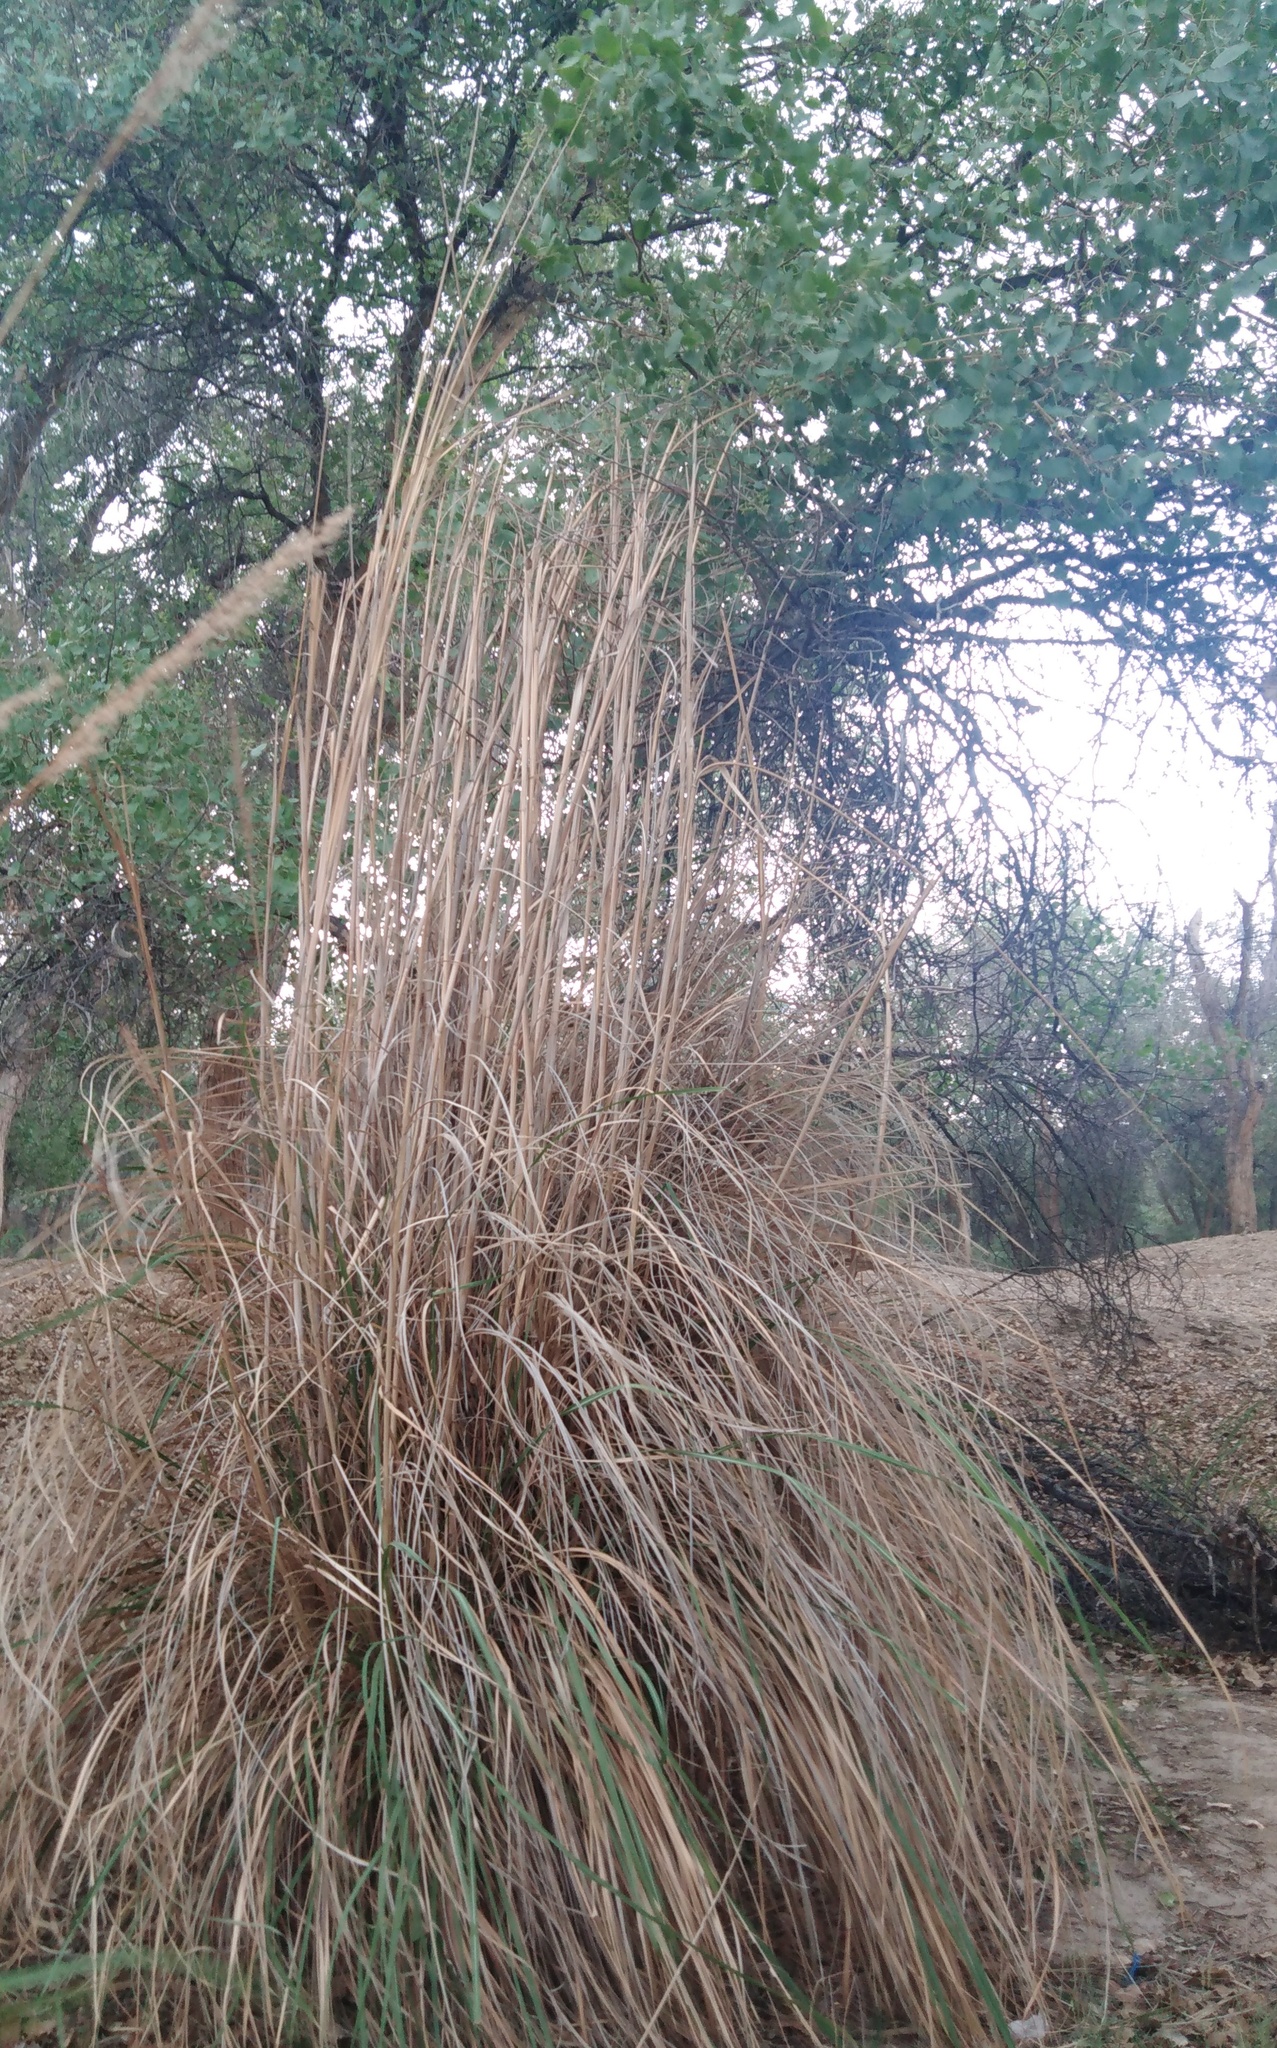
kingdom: Plantae
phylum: Tracheophyta
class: Liliopsida
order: Poales
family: Poaceae
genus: Phragmites
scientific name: Phragmites australis
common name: Common reed
